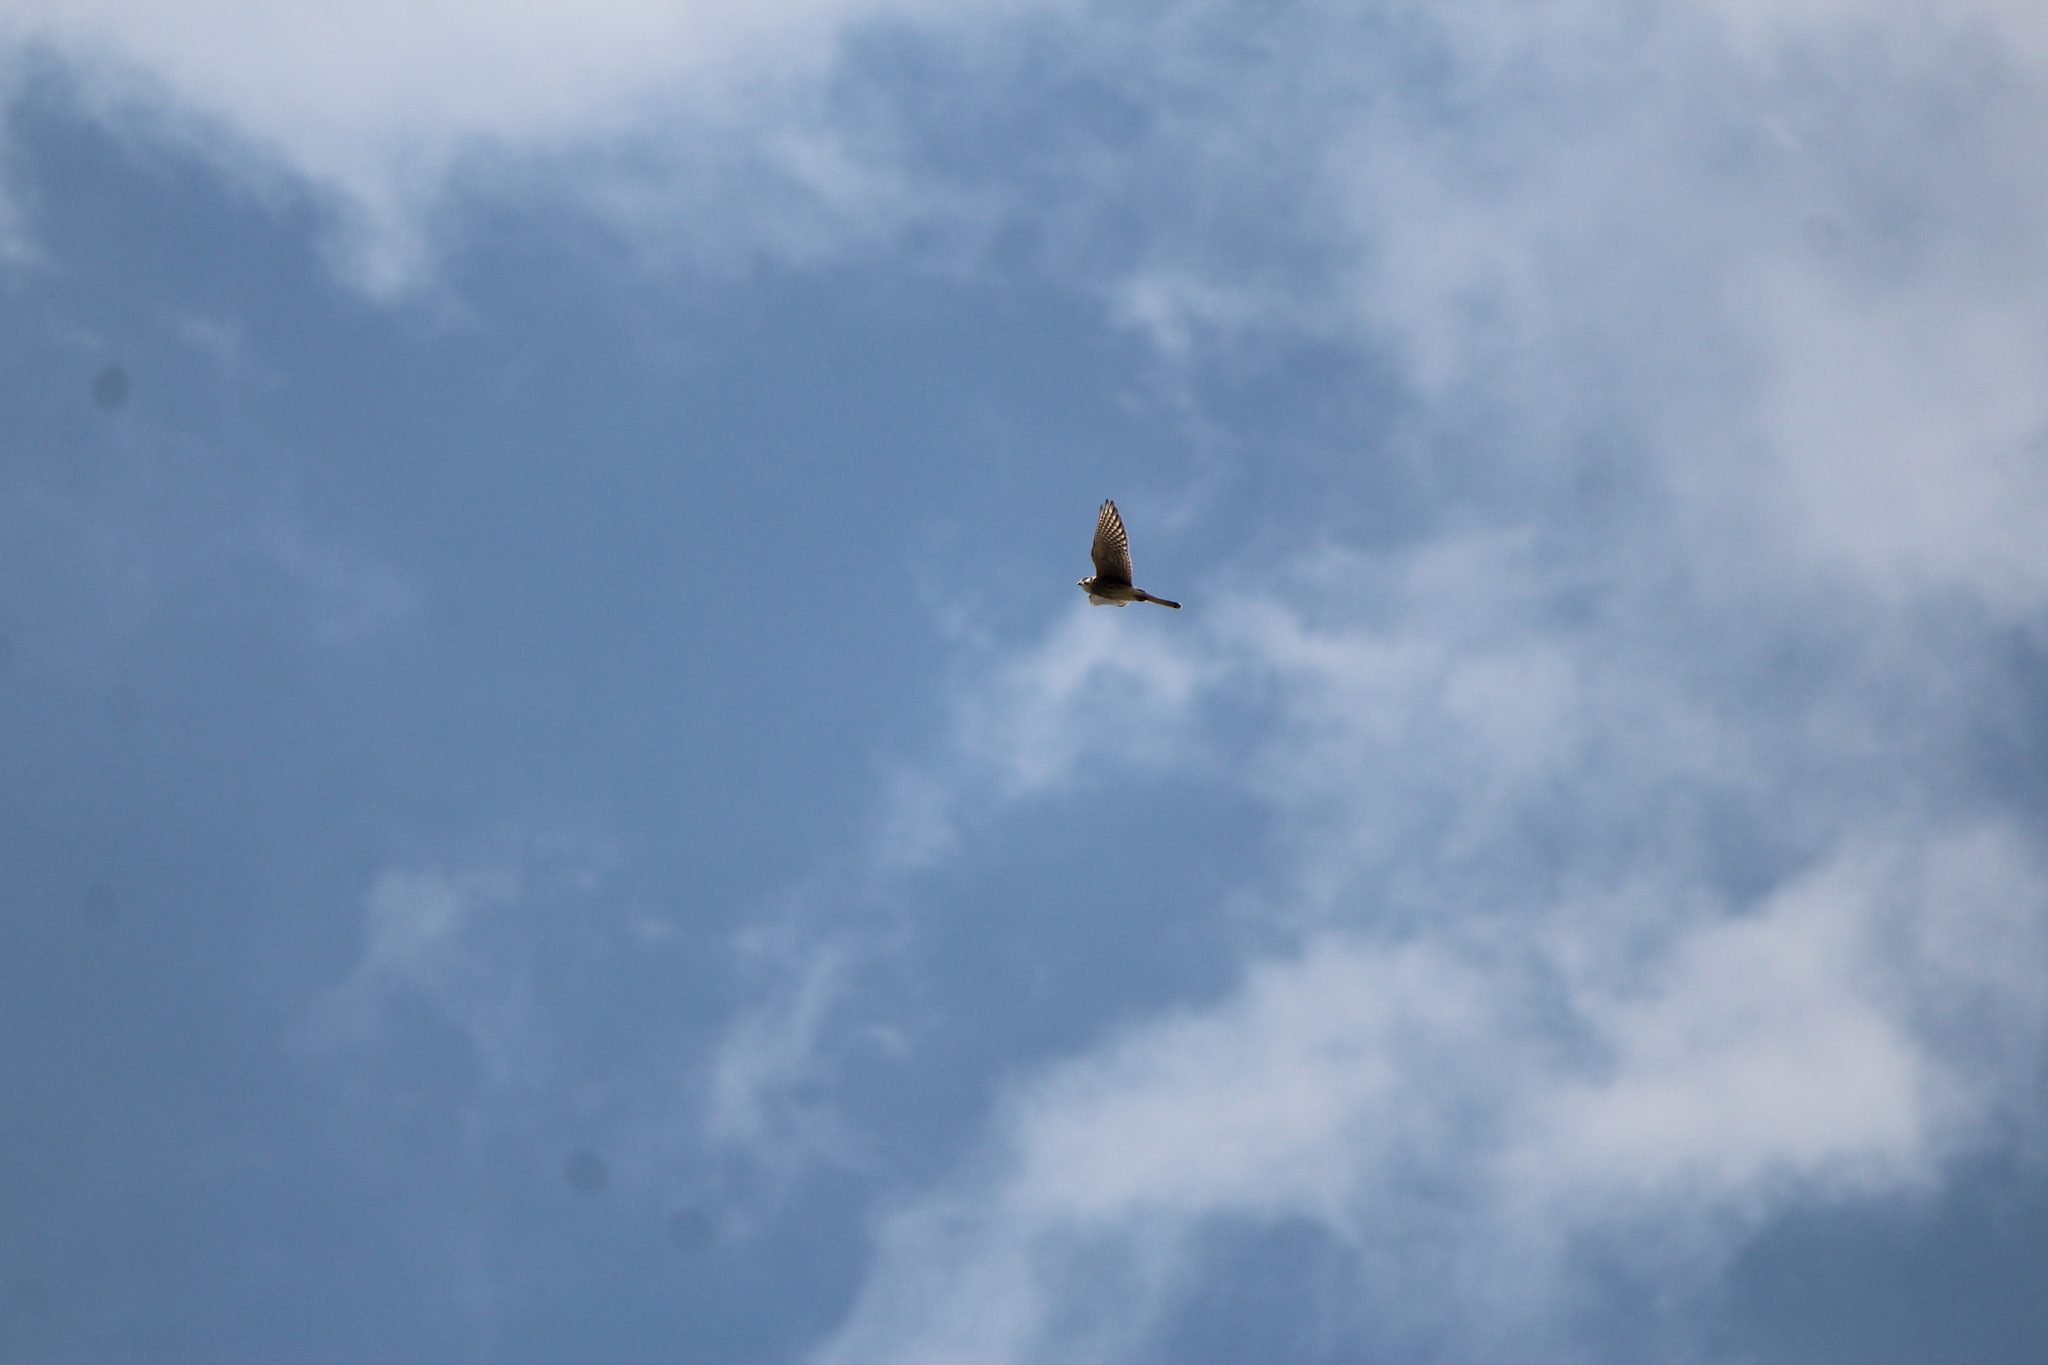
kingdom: Animalia
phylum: Chordata
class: Aves
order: Falconiformes
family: Falconidae
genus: Falco
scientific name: Falco sparverius
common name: American kestrel
